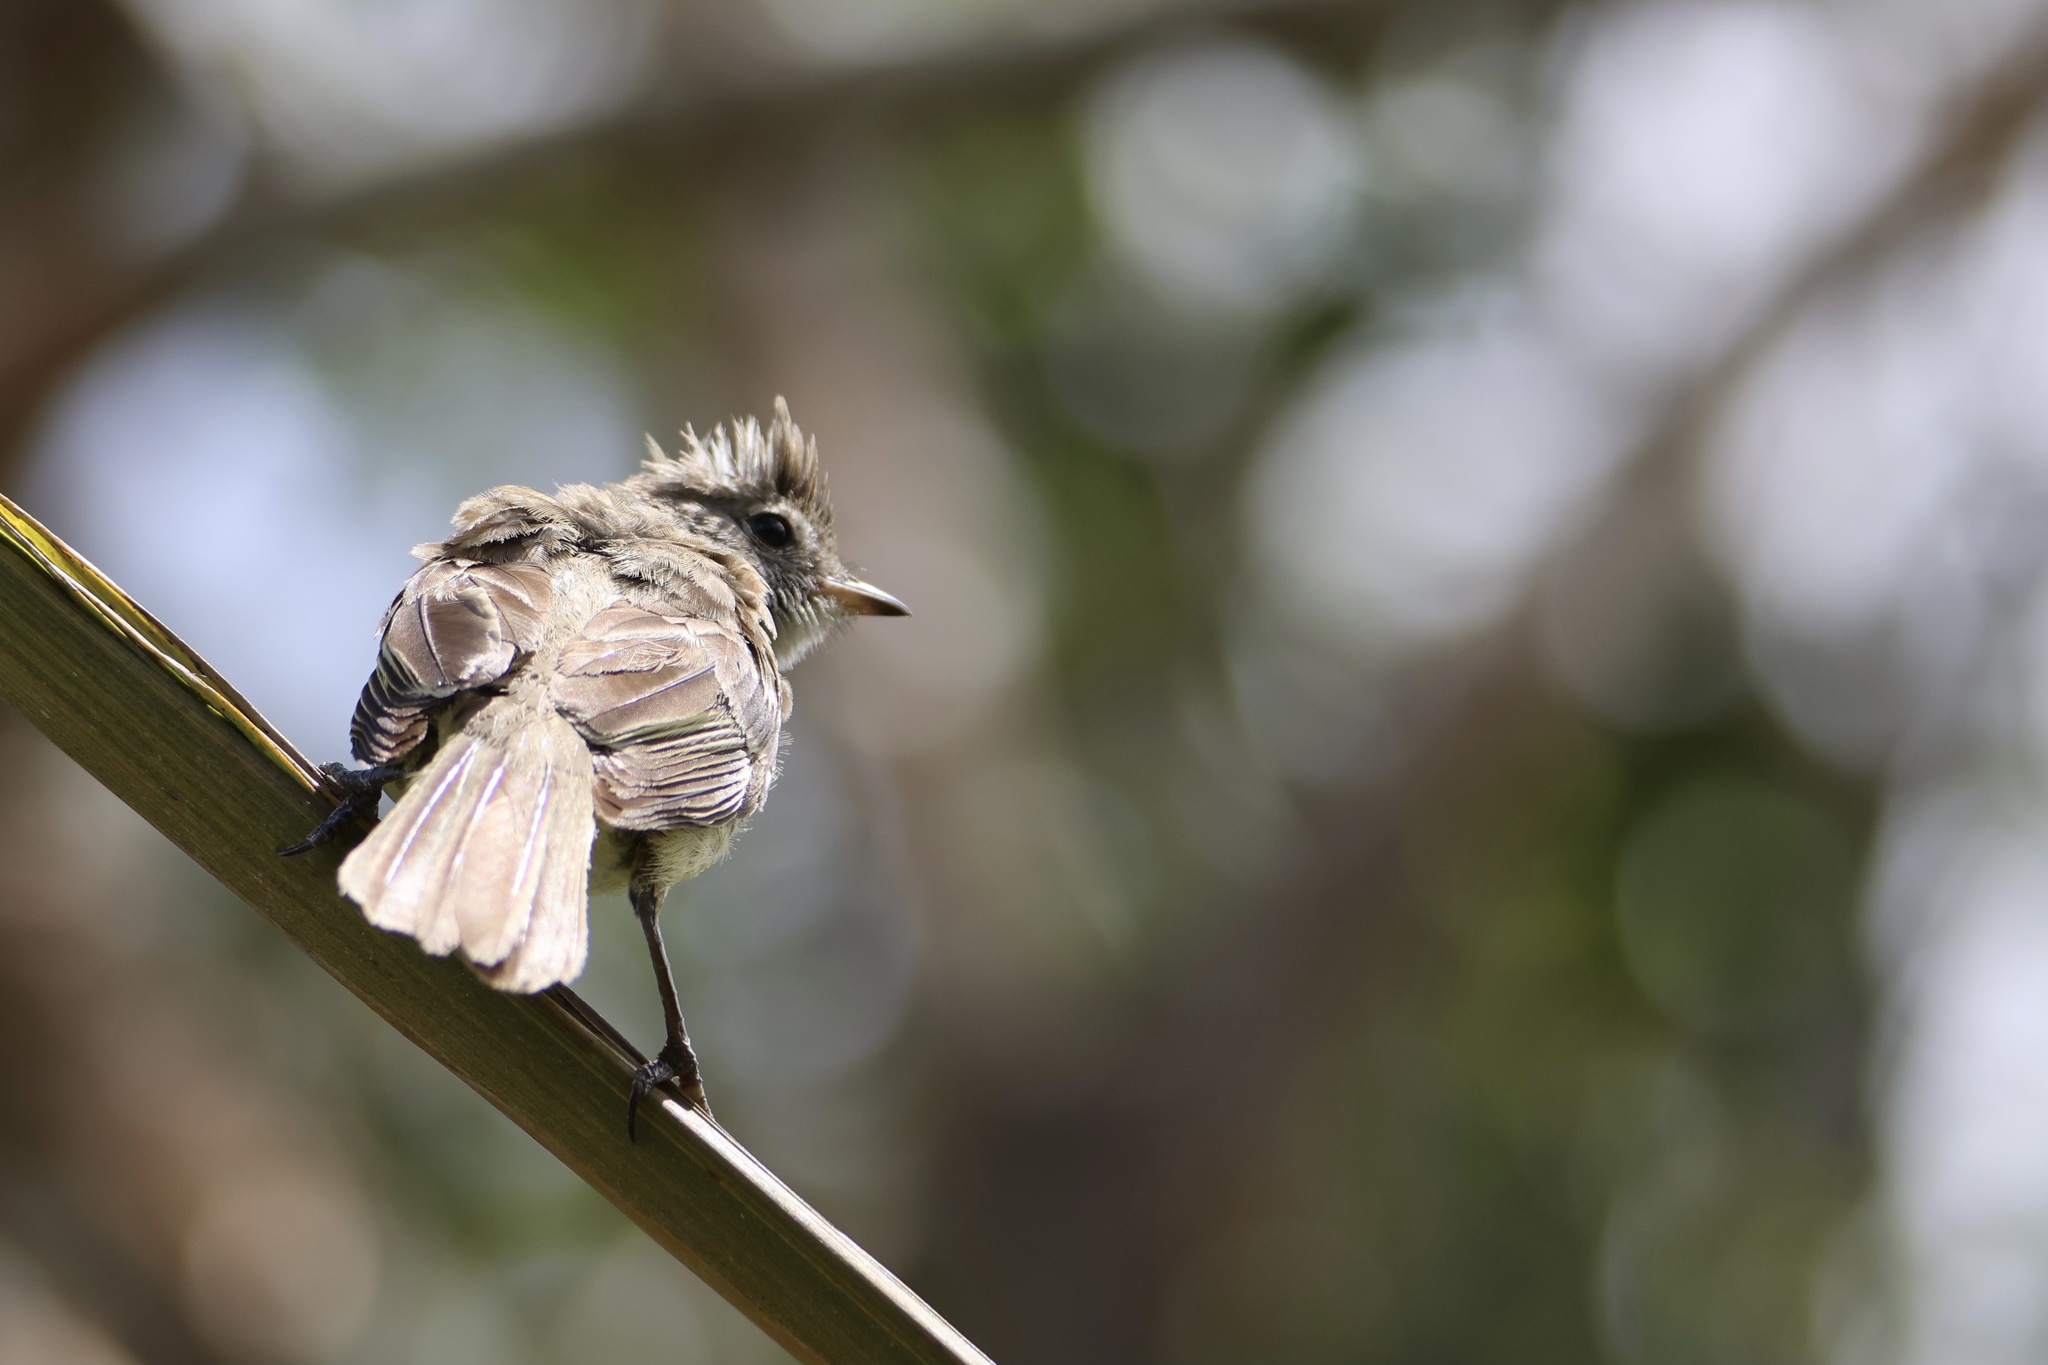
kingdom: Animalia
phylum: Chordata
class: Aves
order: Passeriformes
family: Tyrannidae
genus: Elaenia
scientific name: Elaenia flavogaster
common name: Yellow-bellied elaenia
